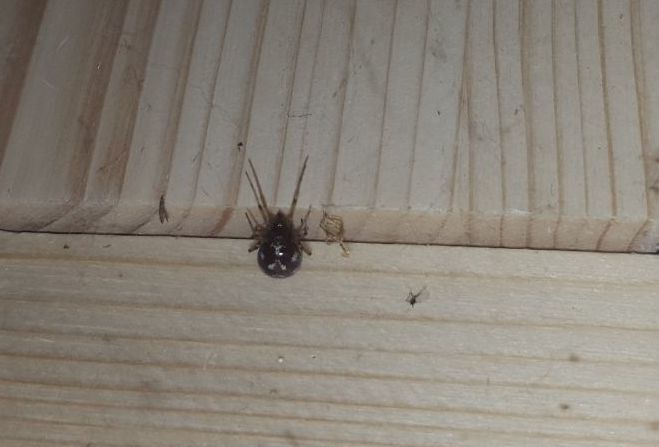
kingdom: Animalia
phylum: Arthropoda
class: Arachnida
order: Araneae
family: Theridiidae
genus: Steatoda
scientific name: Steatoda triangulosa
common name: Triangulate bud spider
